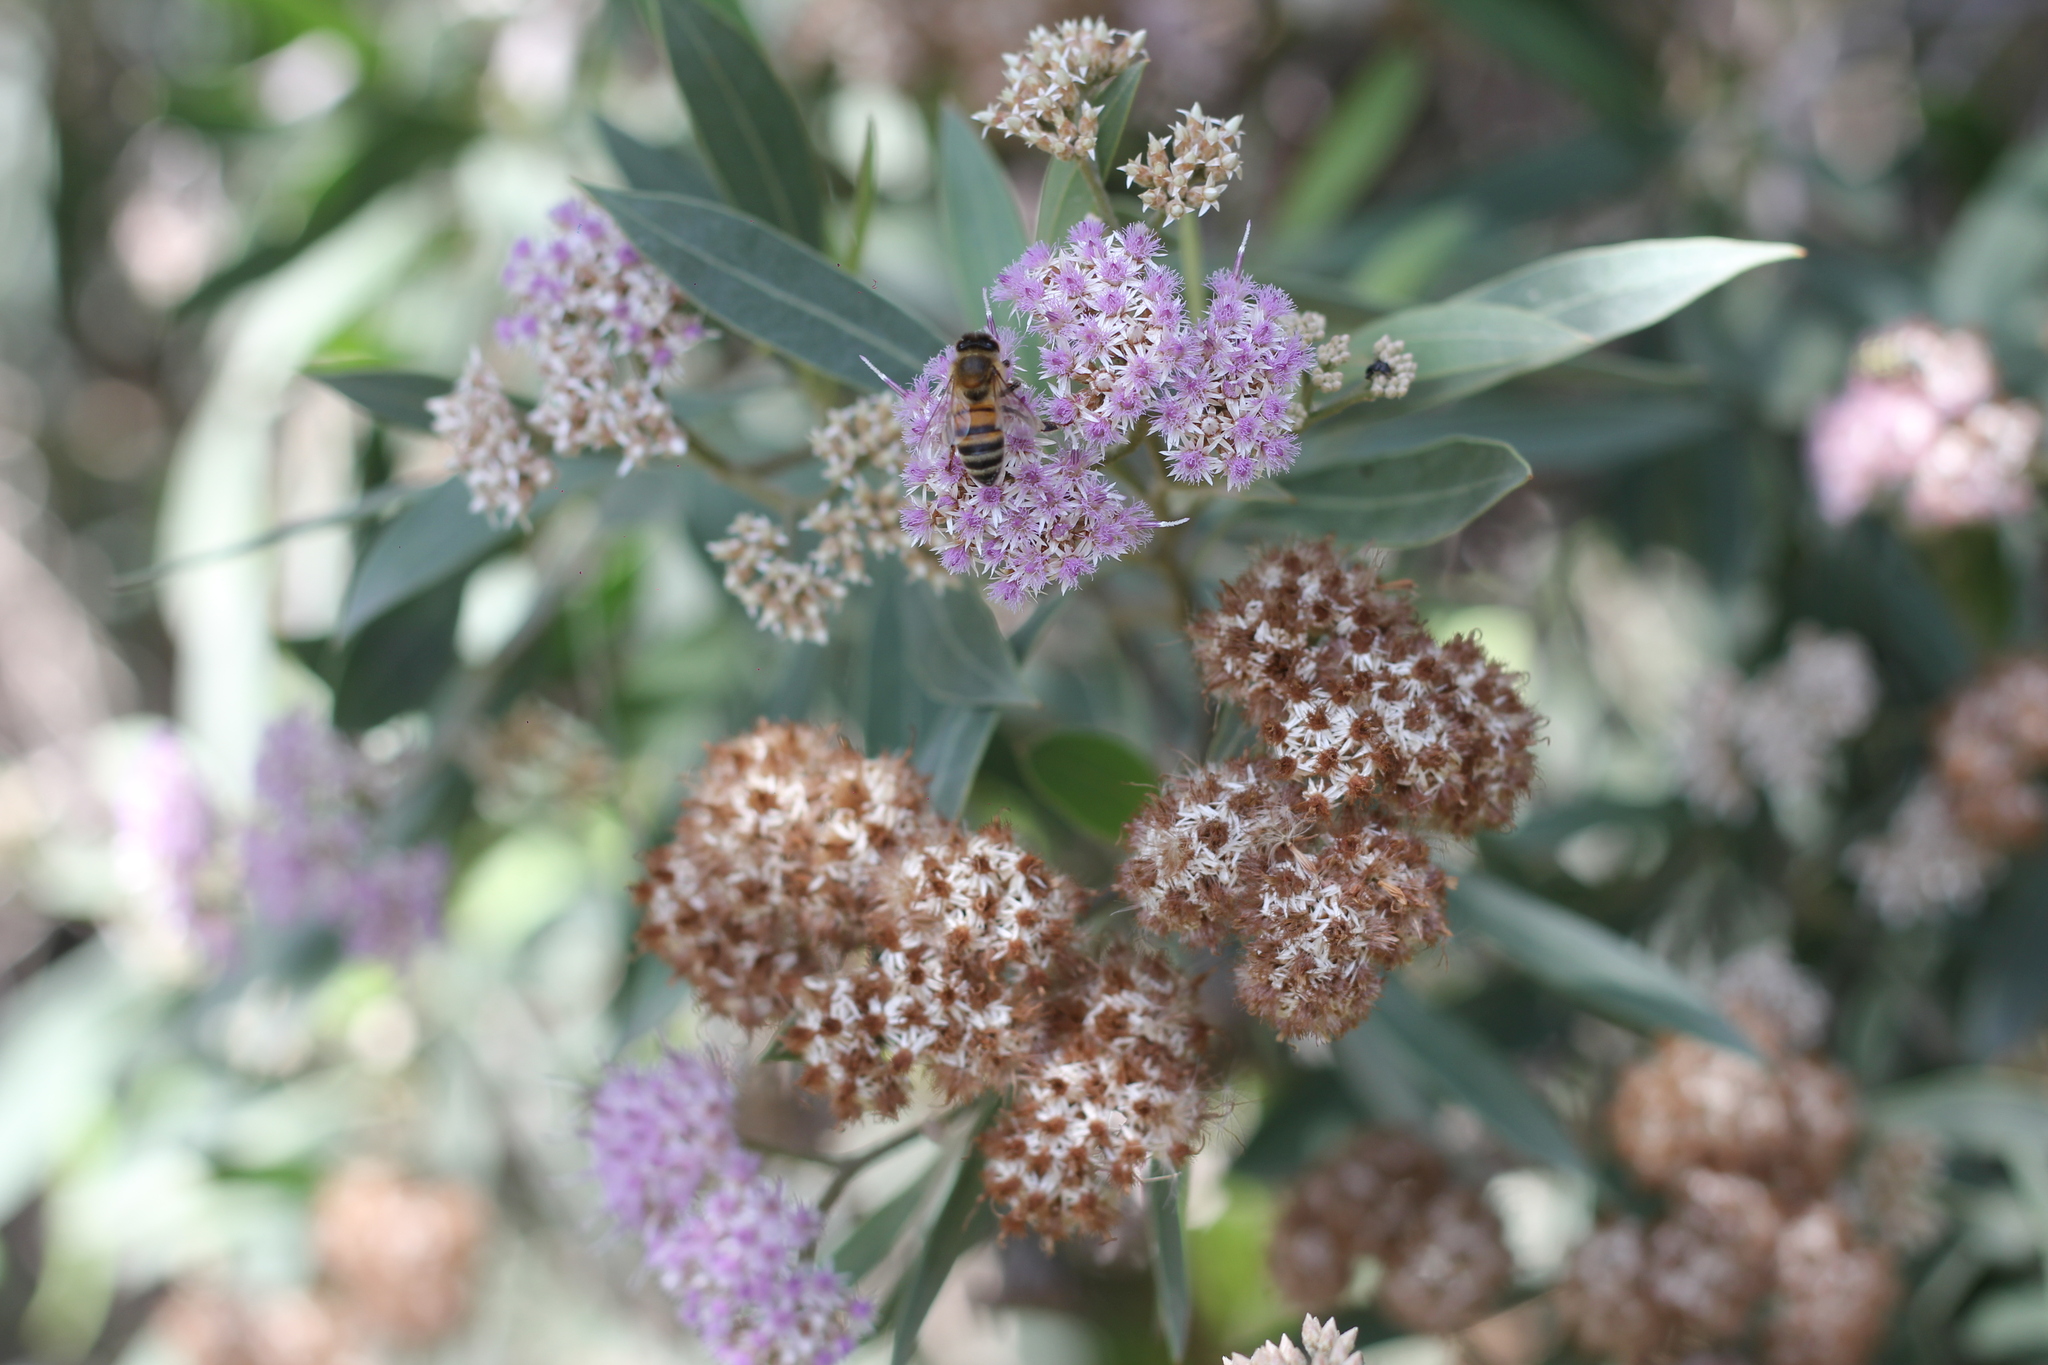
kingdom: Plantae
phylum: Tracheophyta
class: Magnoliopsida
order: Asterales
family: Asteraceae
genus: Tessaria
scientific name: Tessaria integrifolia
